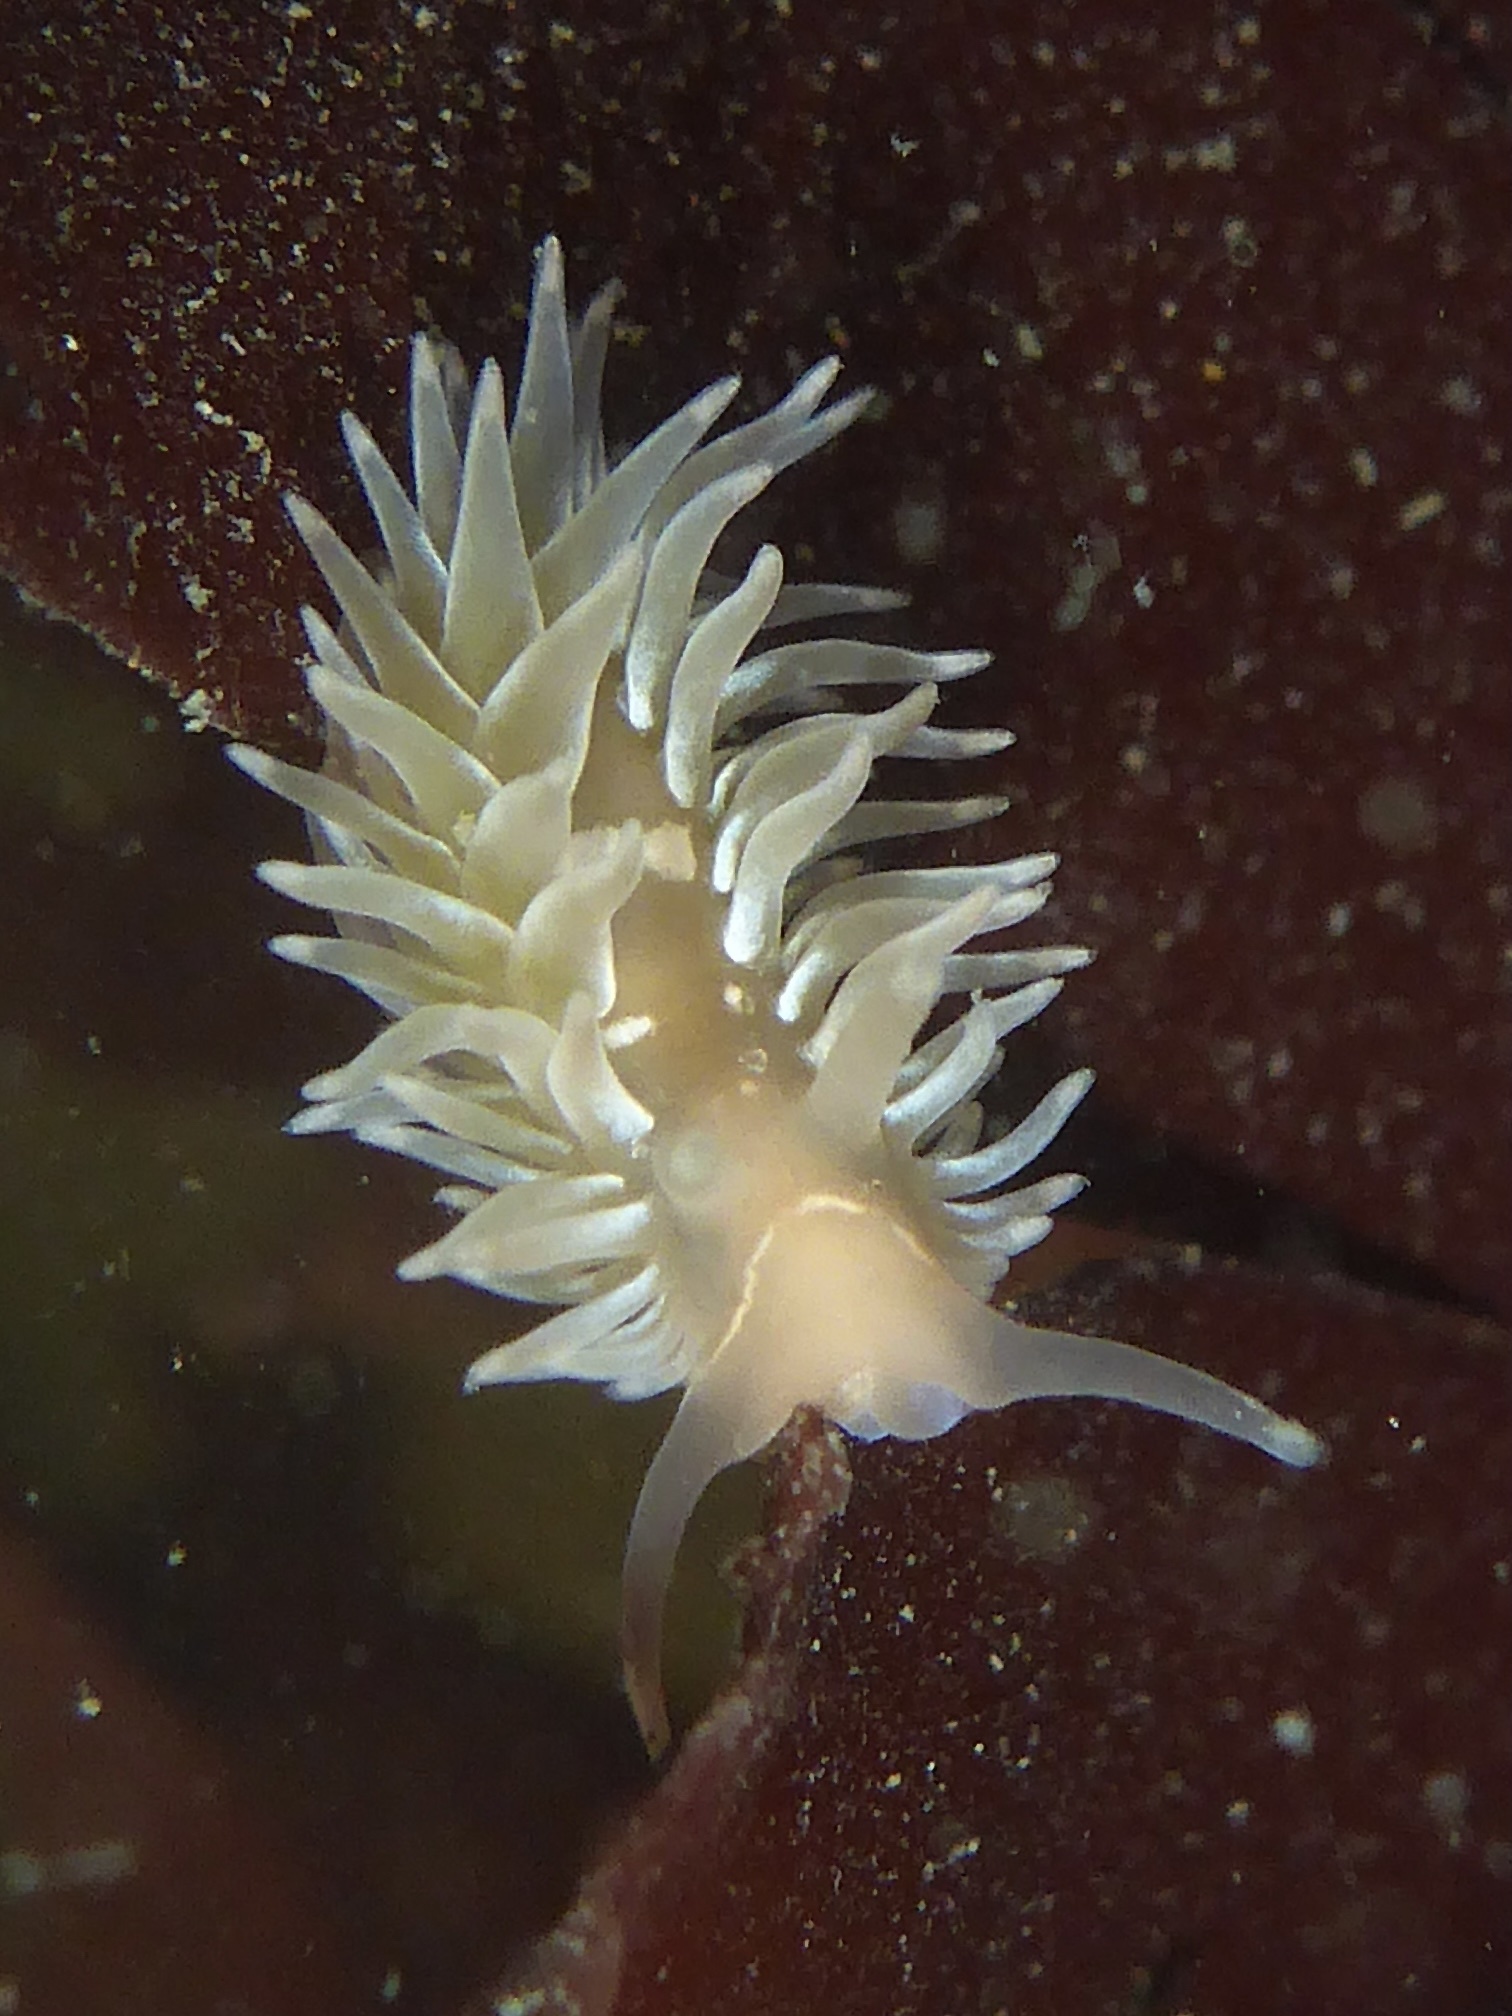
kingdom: Animalia
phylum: Mollusca
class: Gastropoda
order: Nudibranchia
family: Aeolidiidae
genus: Aeolidia
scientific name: Aeolidia loui
